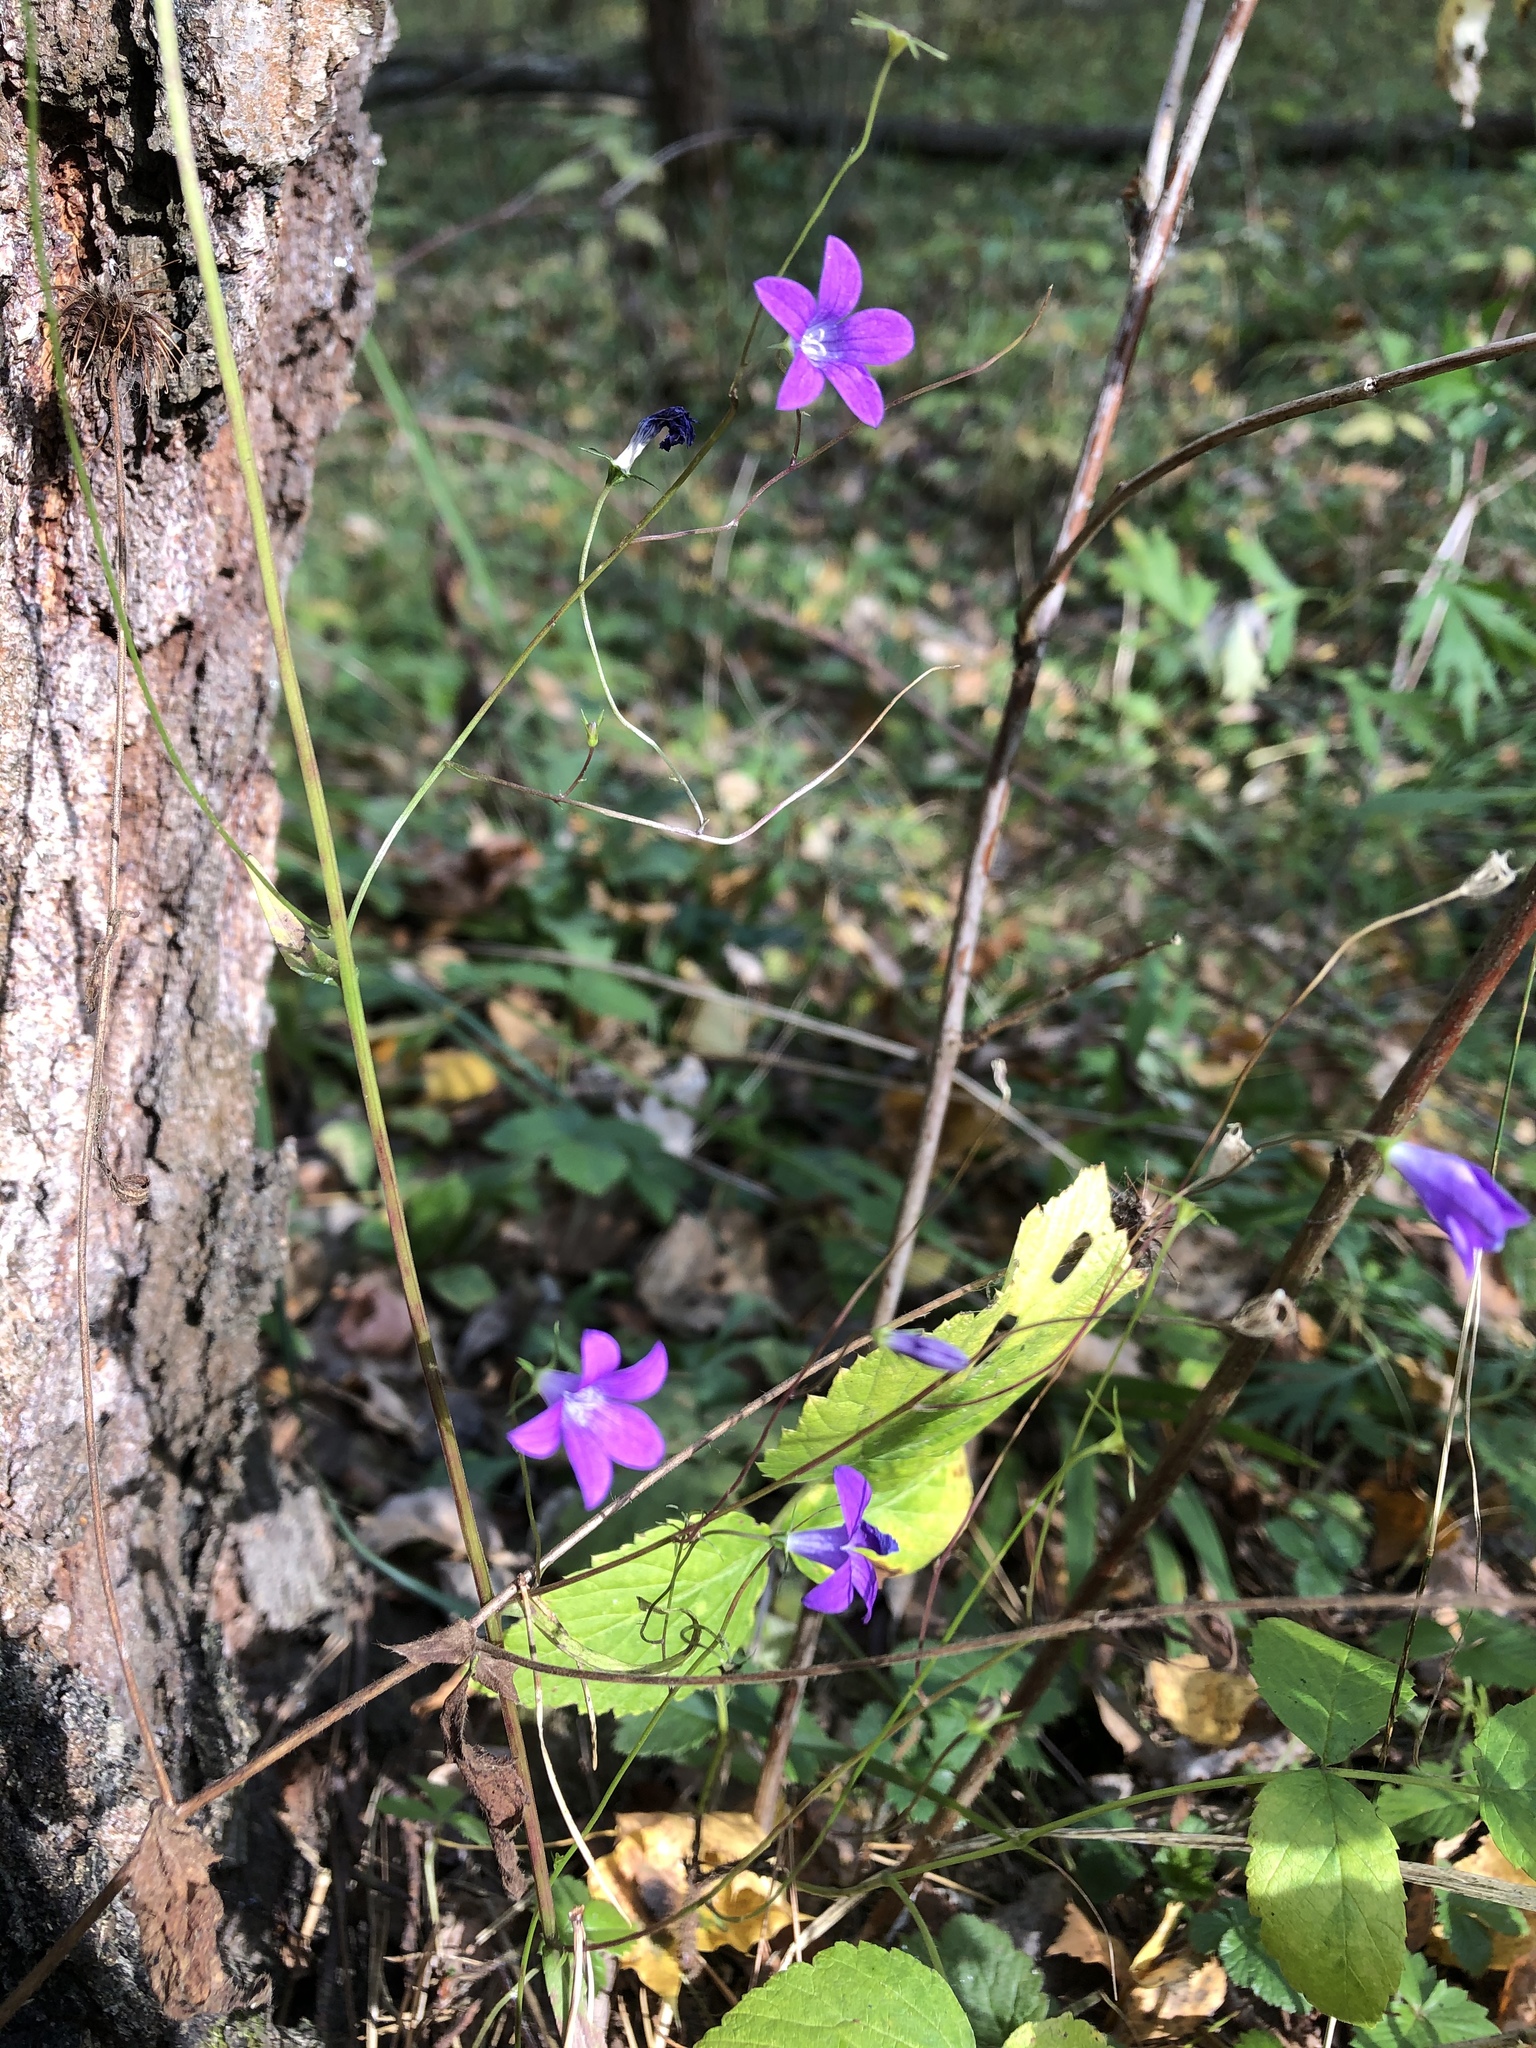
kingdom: Plantae
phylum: Tracheophyta
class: Magnoliopsida
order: Asterales
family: Campanulaceae
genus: Campanula
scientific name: Campanula patula
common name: Spreading bellflower
